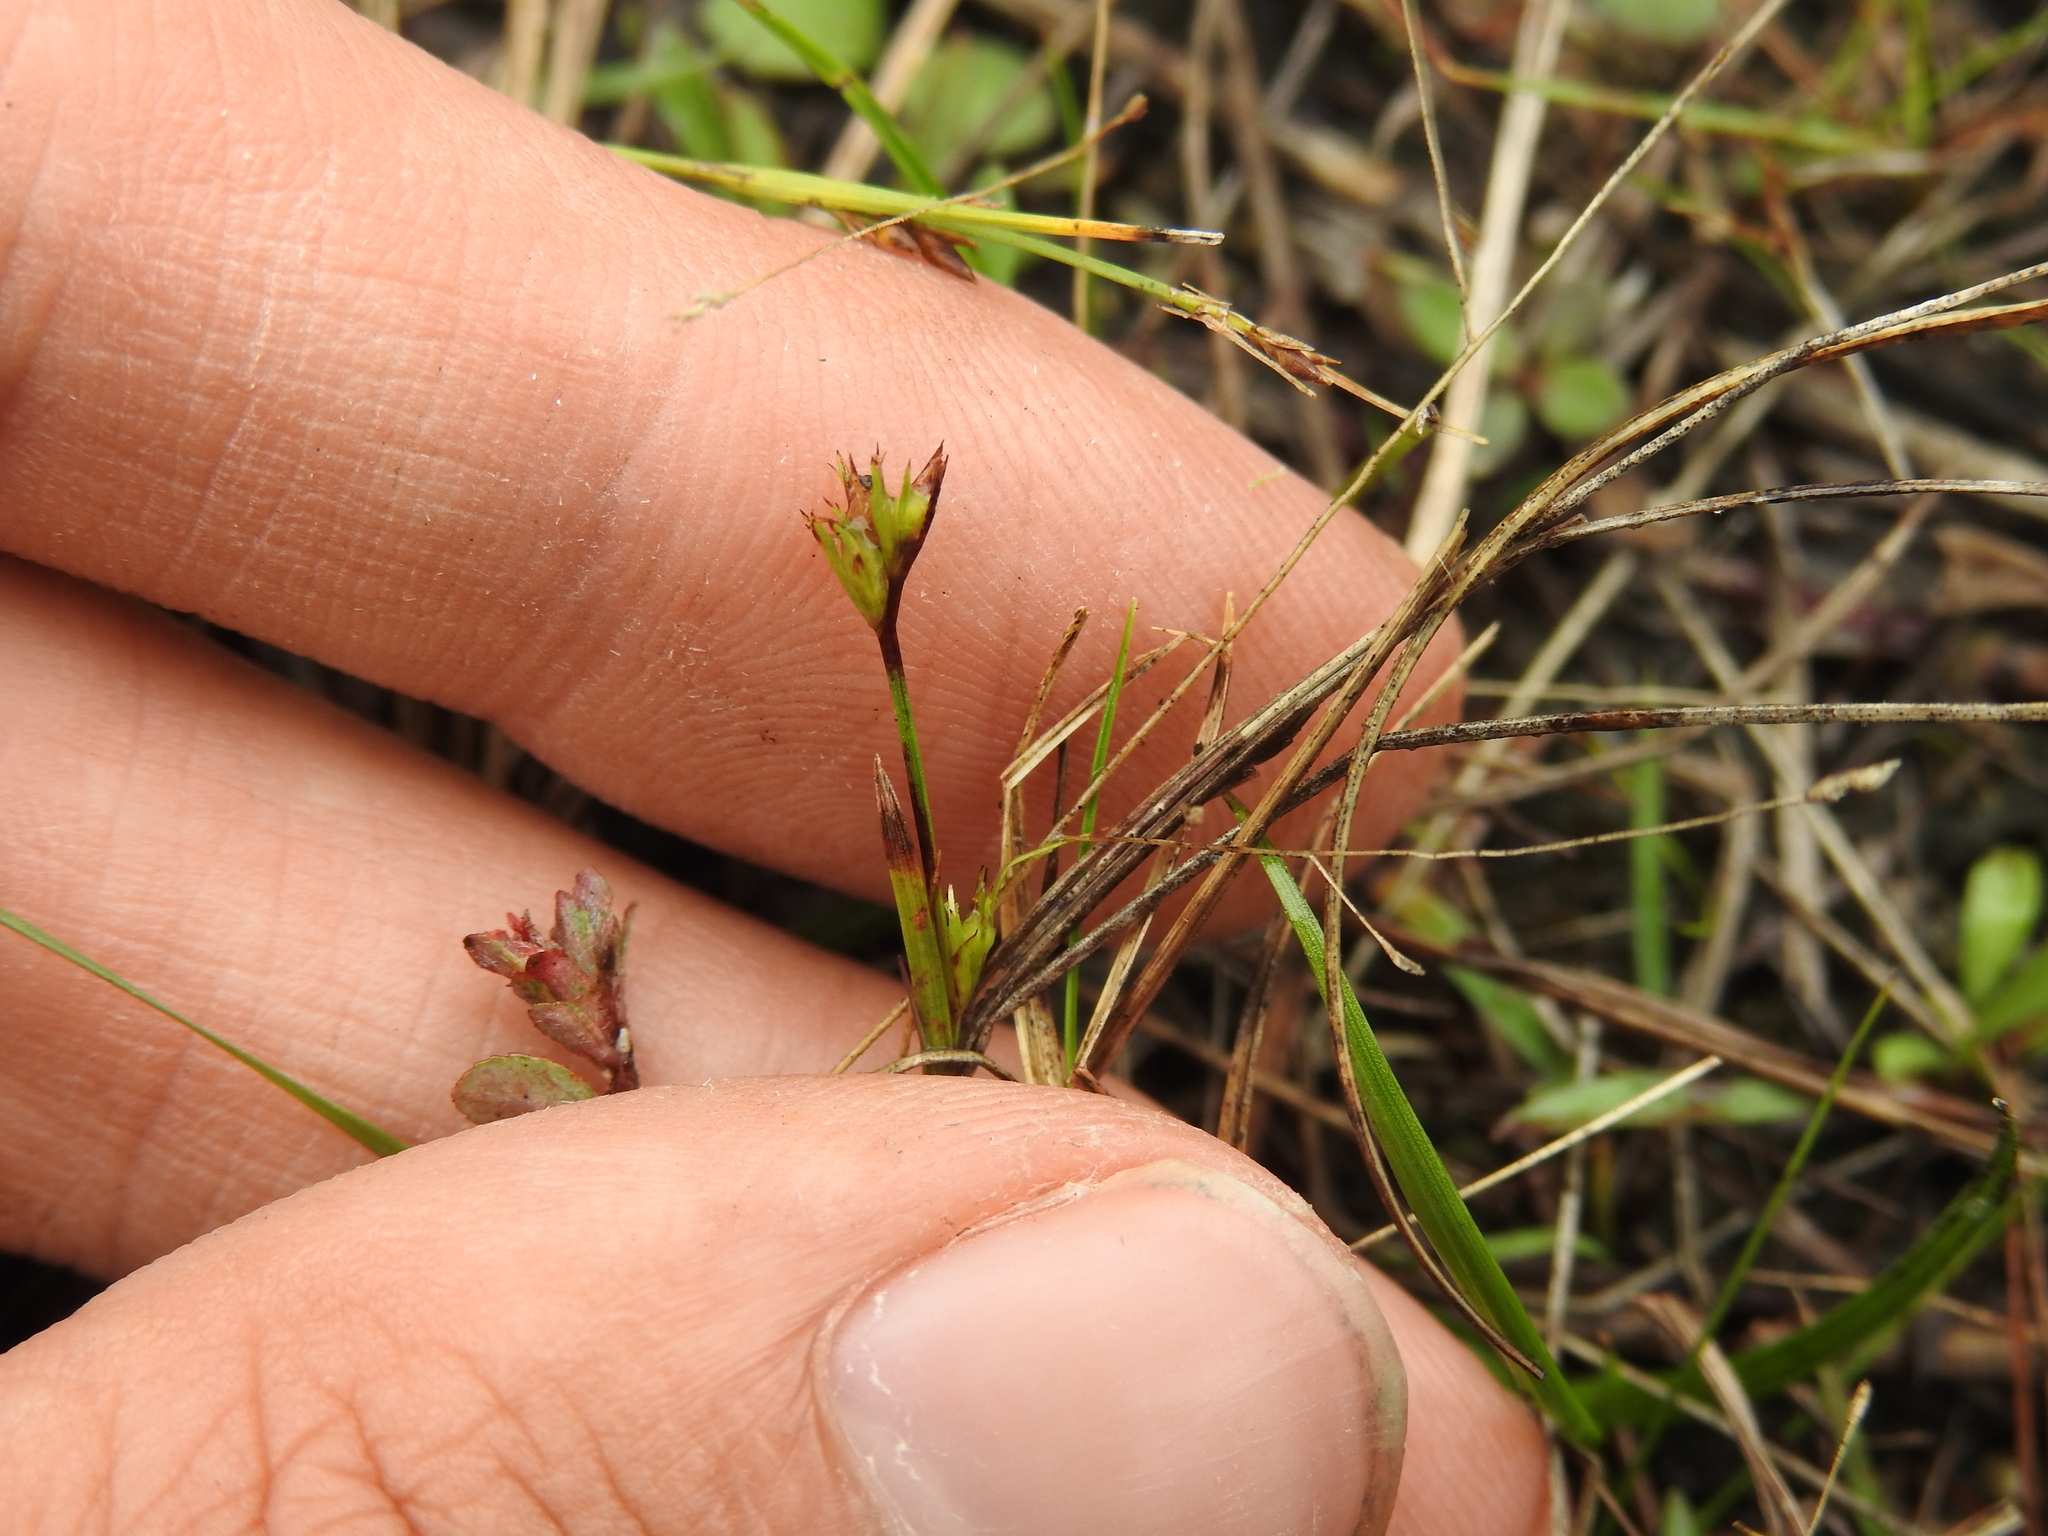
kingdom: Plantae
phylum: Tracheophyta
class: Liliopsida
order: Poales
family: Cyperaceae
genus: Scleria
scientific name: Scleria verticillata
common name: Low nutrush
